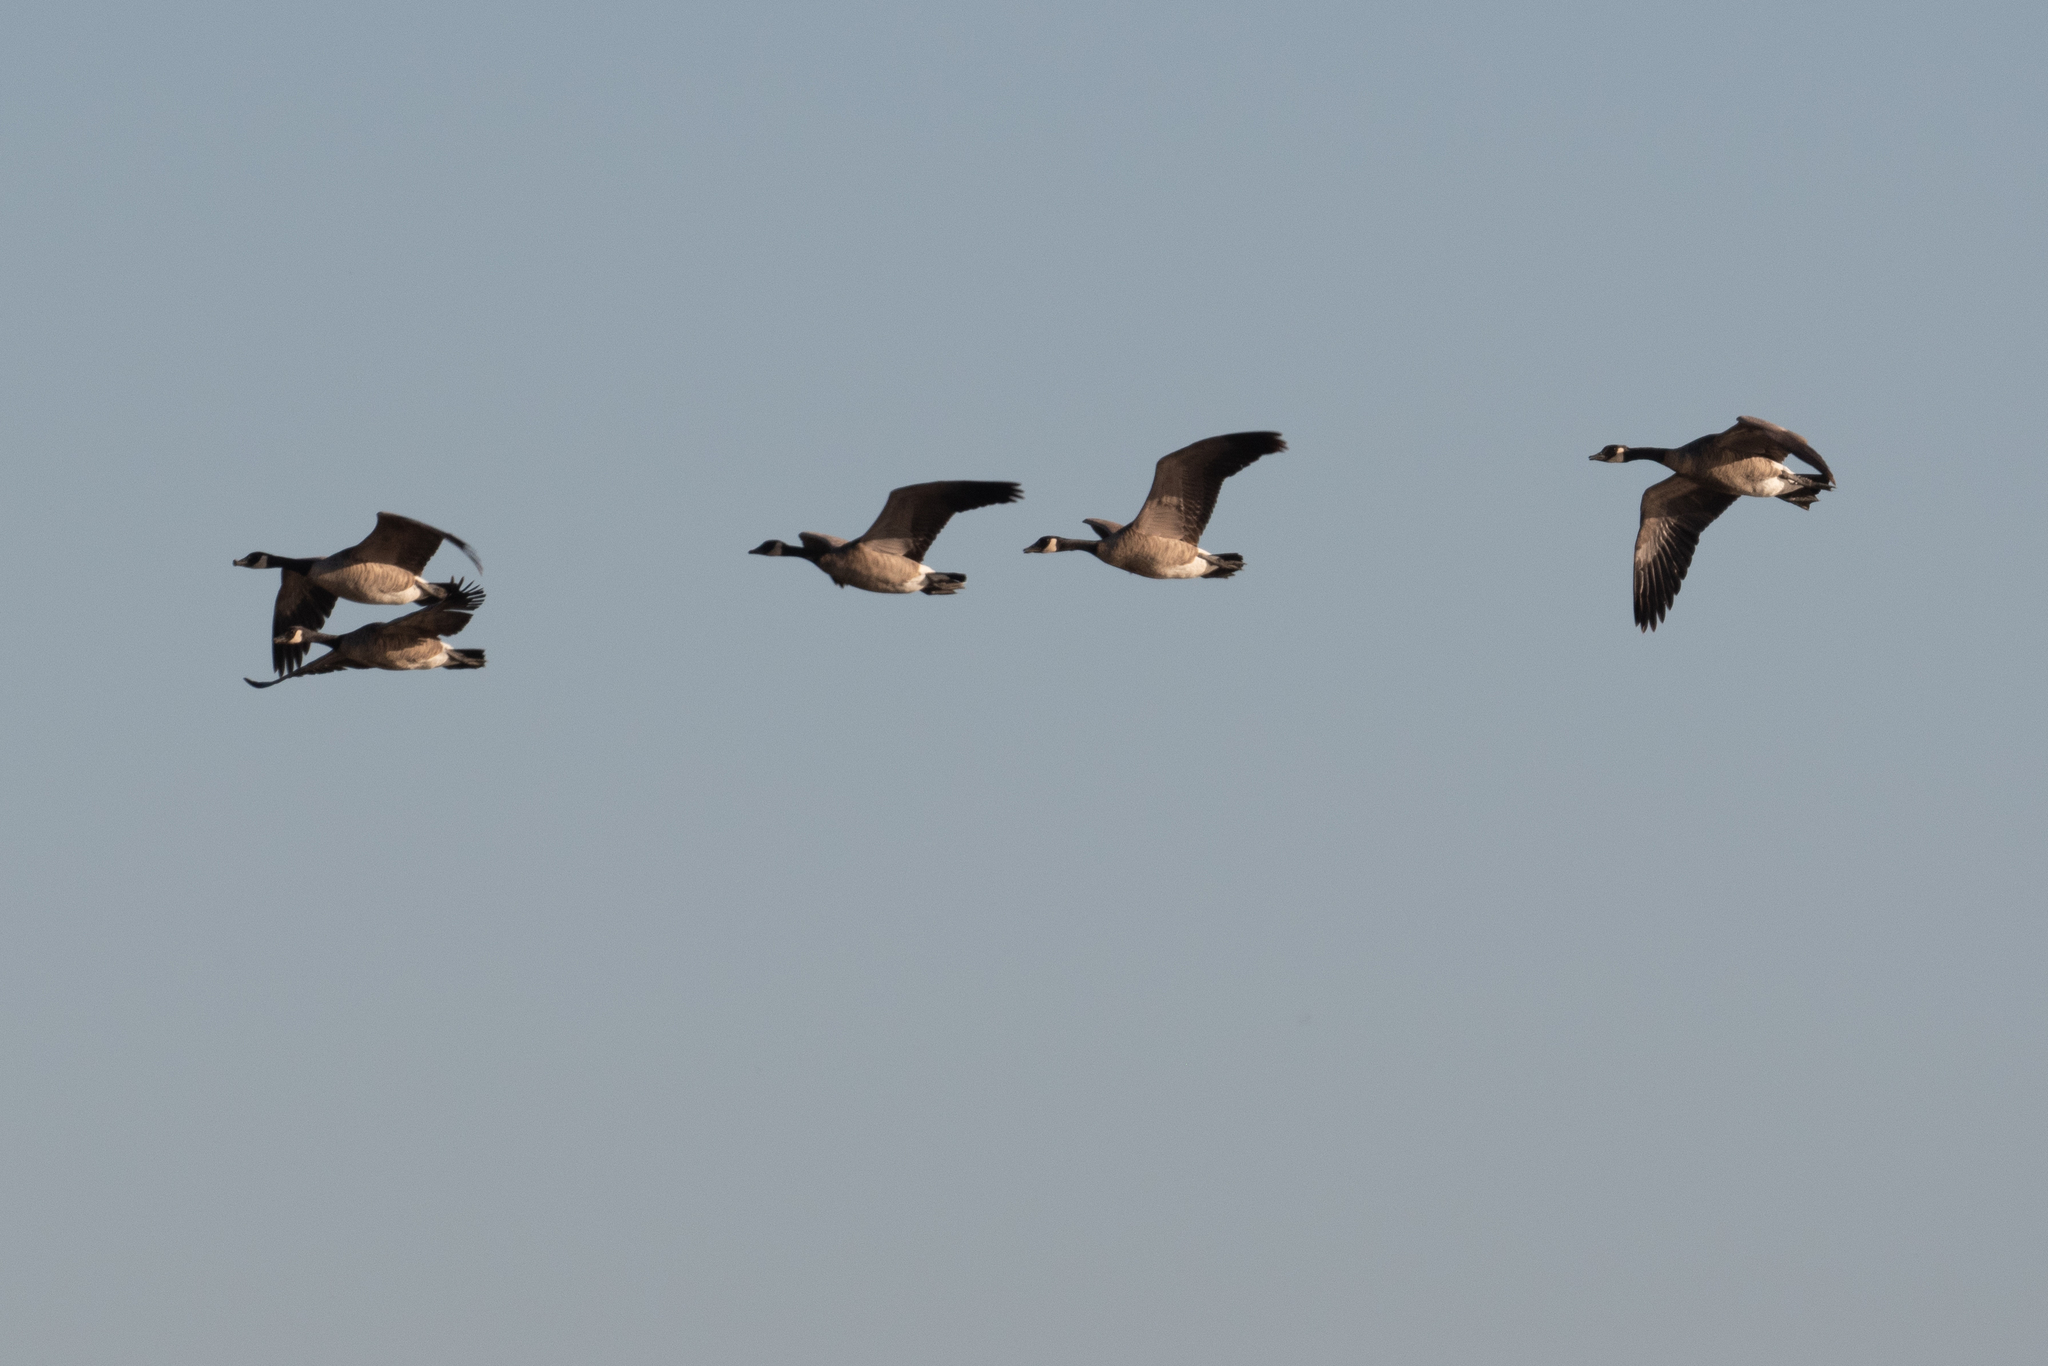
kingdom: Animalia
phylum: Chordata
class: Aves
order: Anseriformes
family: Anatidae
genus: Branta
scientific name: Branta canadensis
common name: Canada goose
